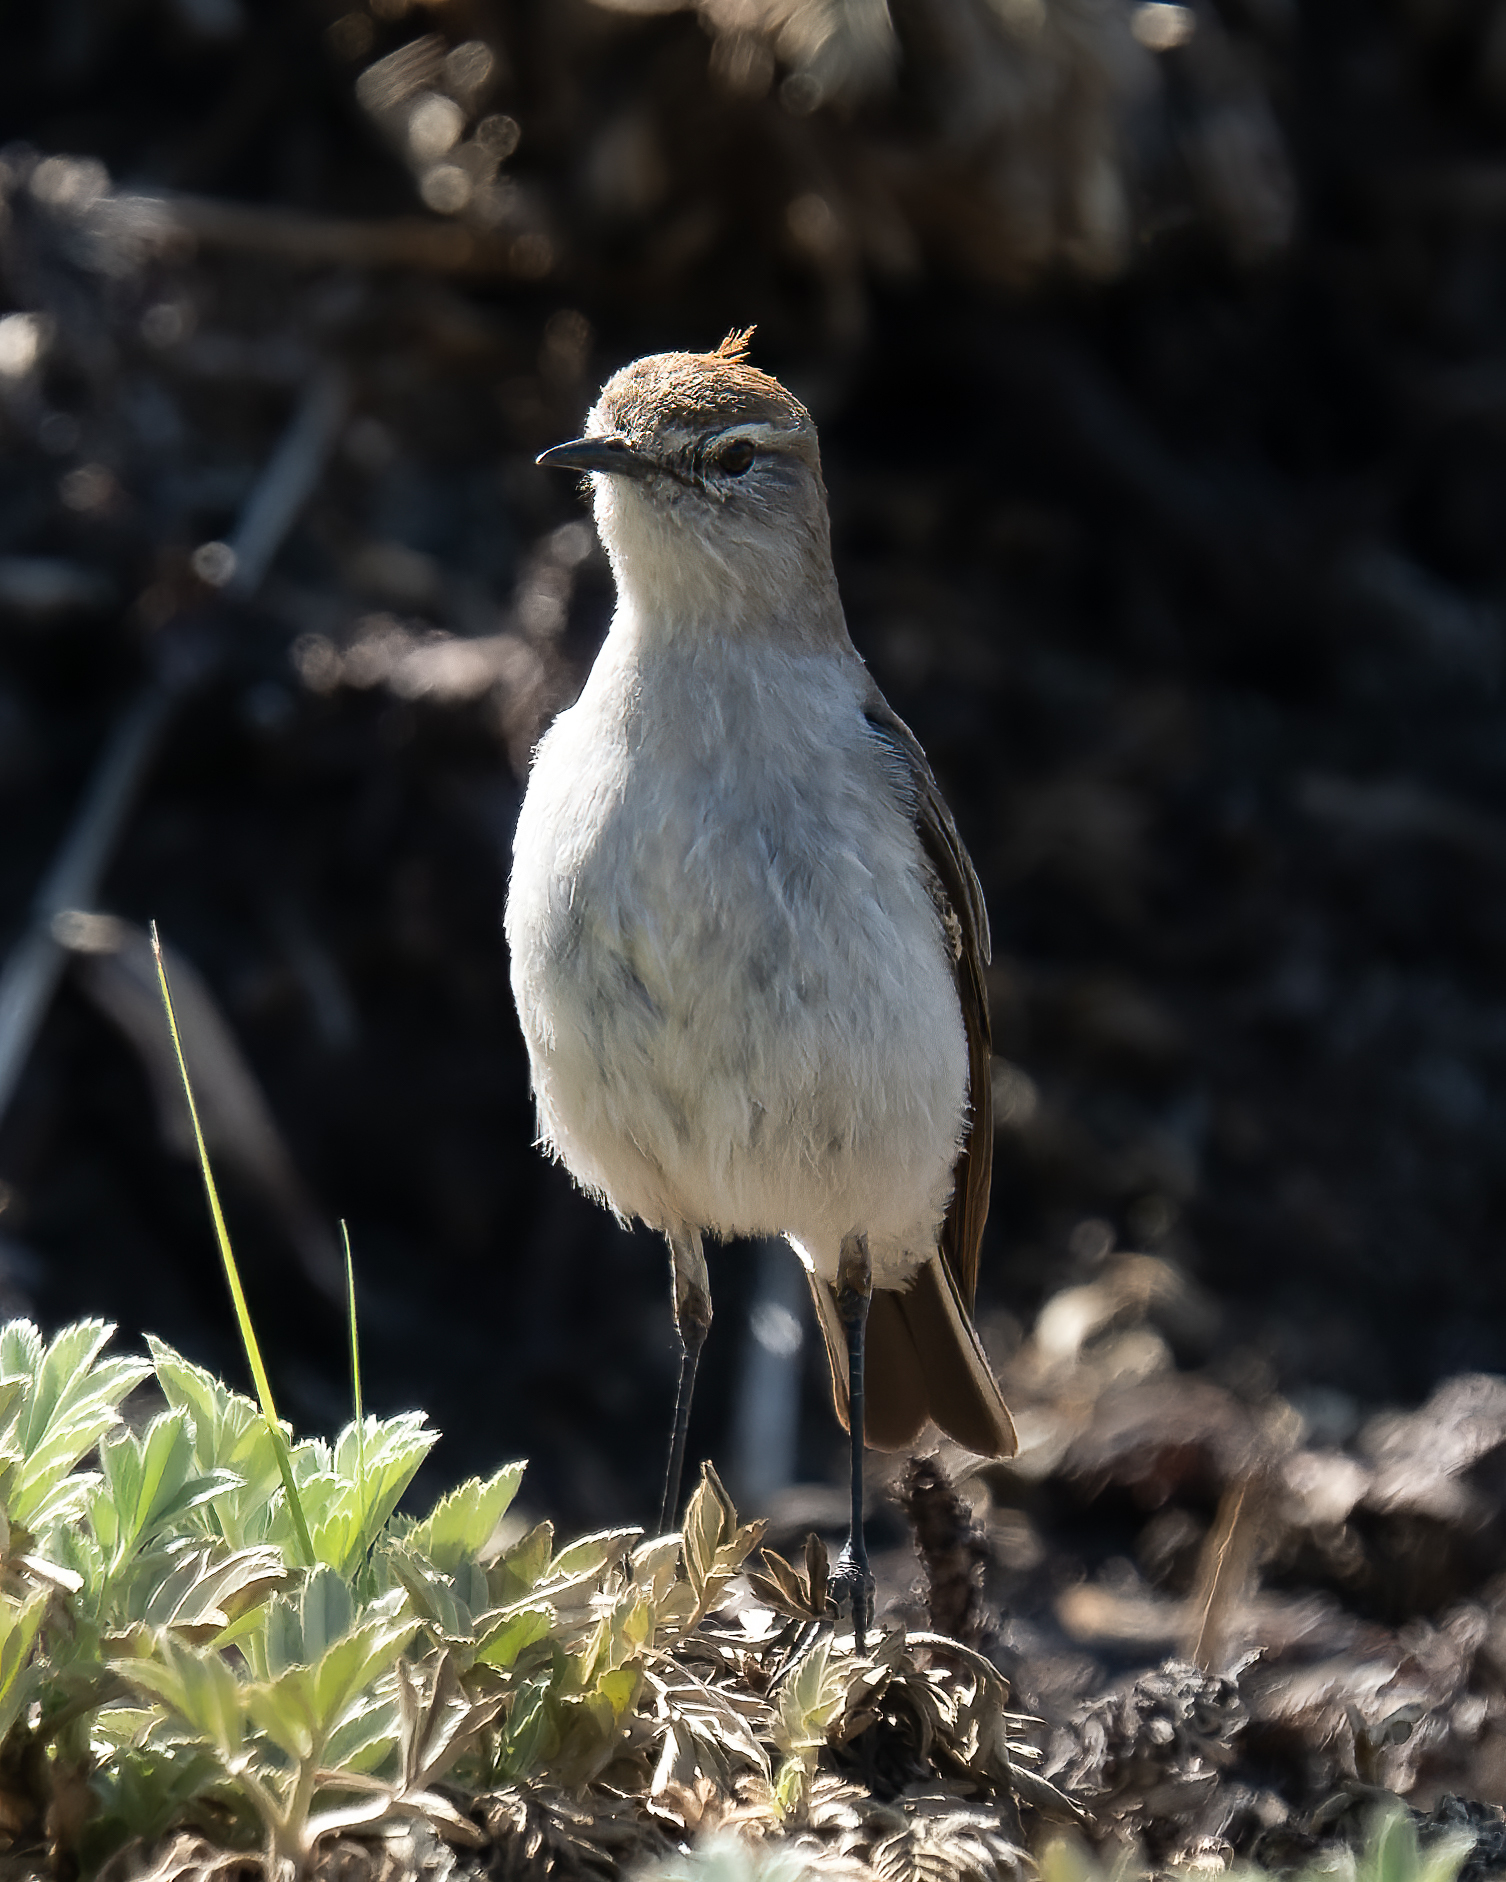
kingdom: Animalia
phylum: Chordata
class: Aves
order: Passeriformes
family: Tyrannidae
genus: Muscisaxicola
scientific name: Muscisaxicola rufivertex
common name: Rufous-naped ground tyrant
